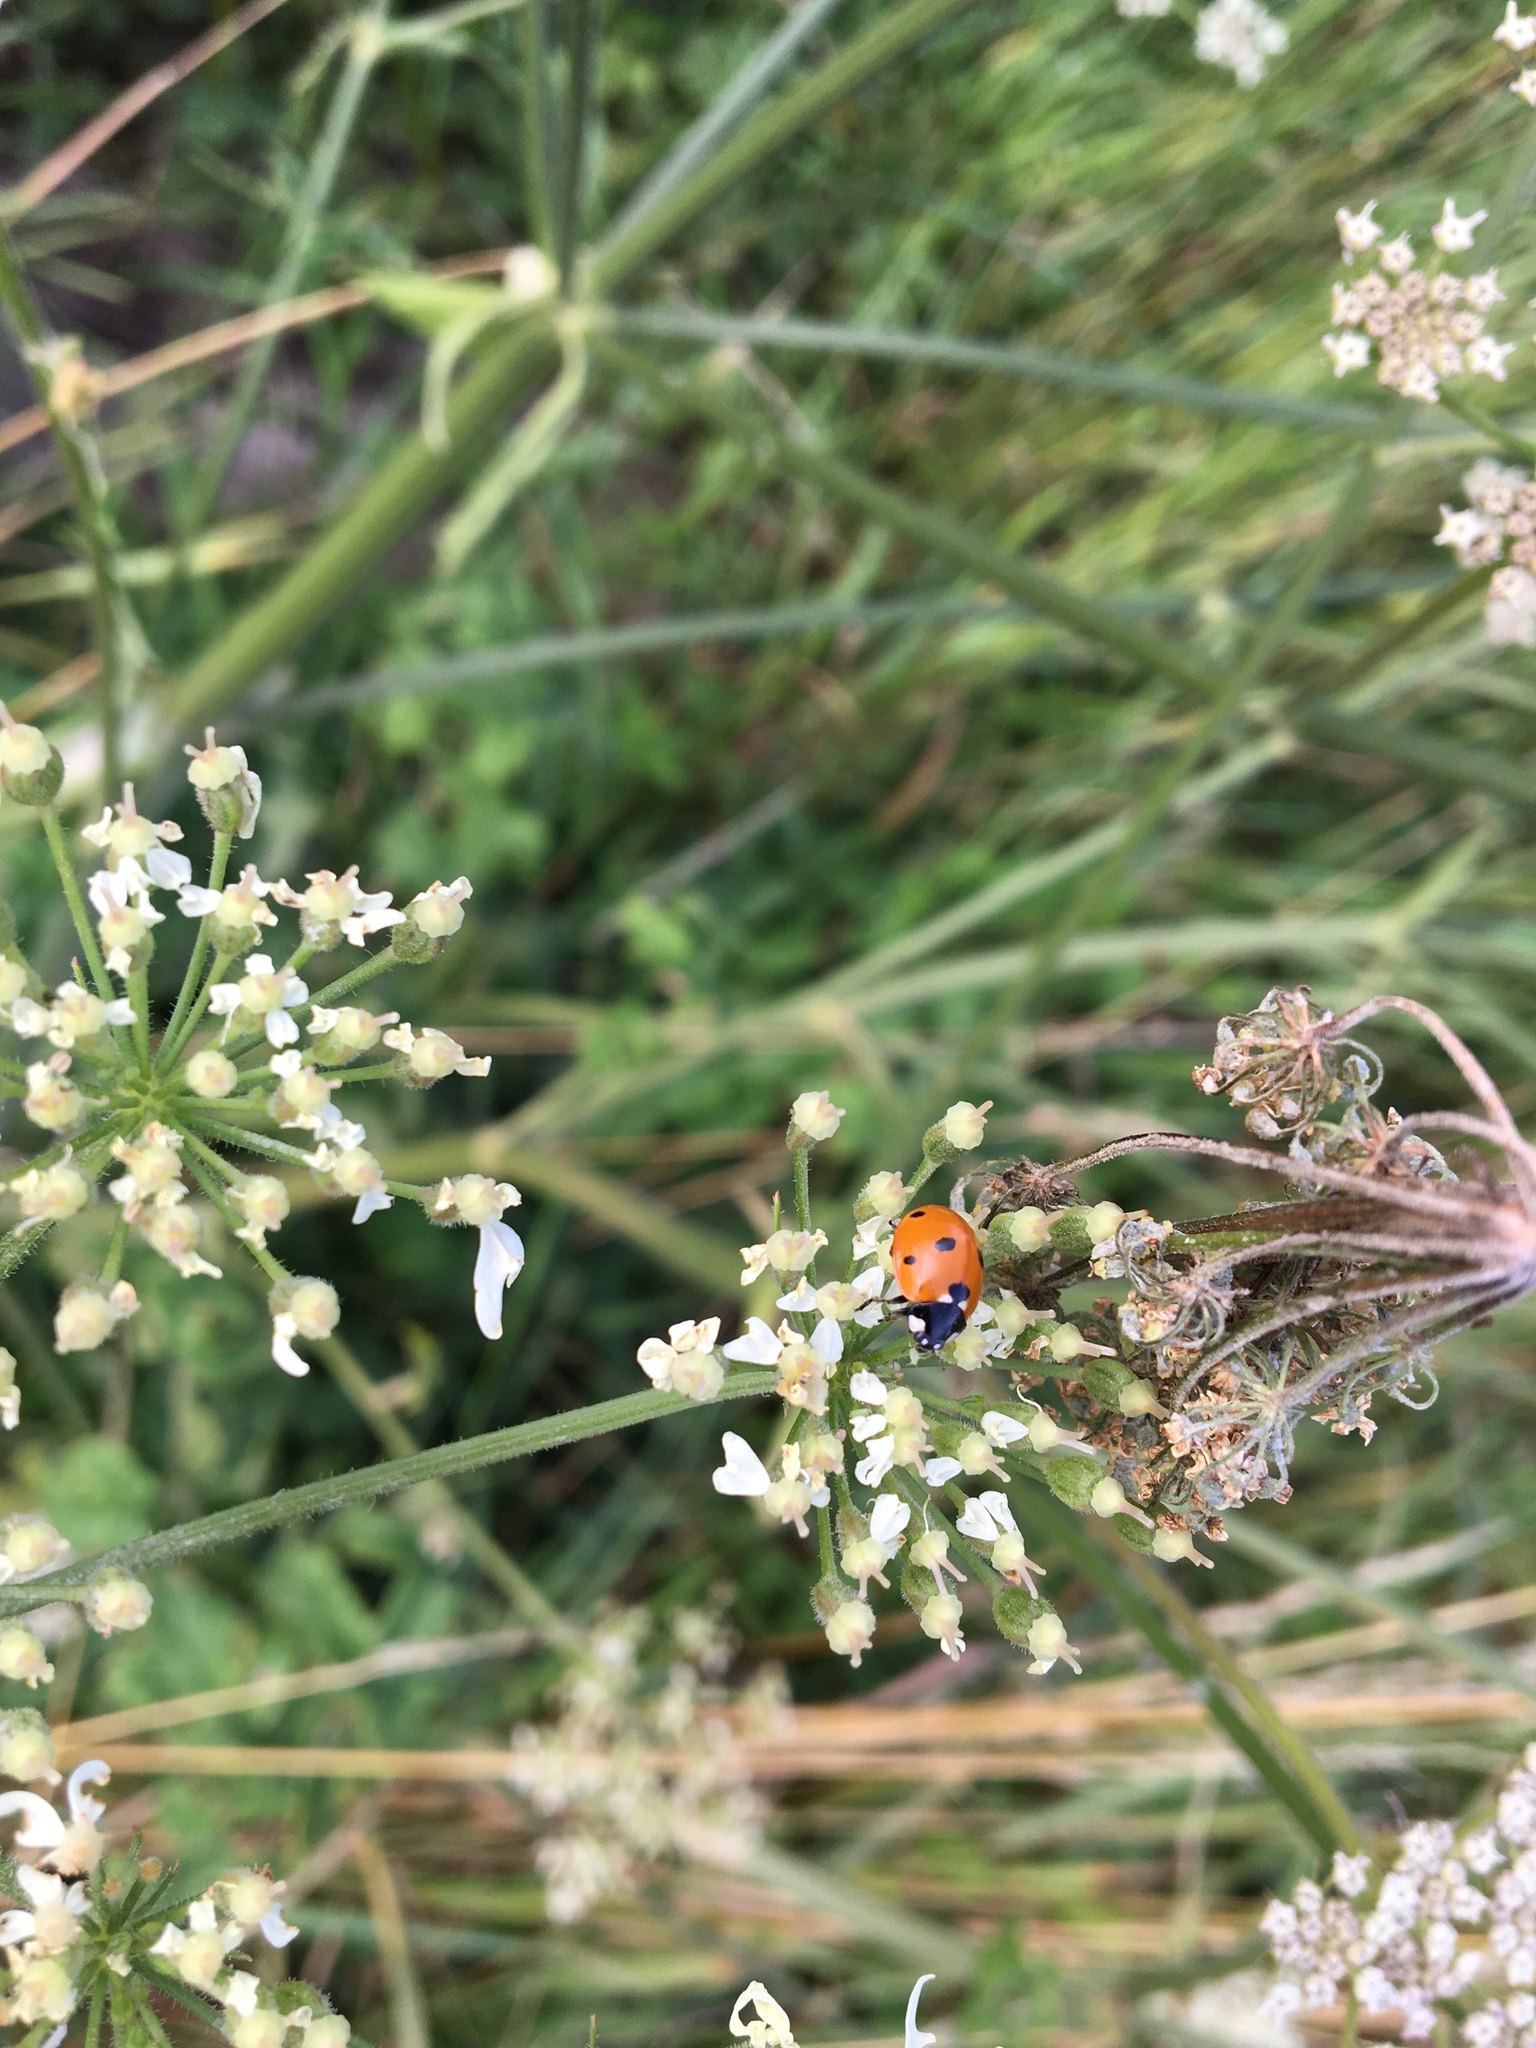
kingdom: Animalia
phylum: Arthropoda
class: Insecta
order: Coleoptera
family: Coccinellidae
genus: Coccinella
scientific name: Coccinella septempunctata
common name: Sevenspotted lady beetle
